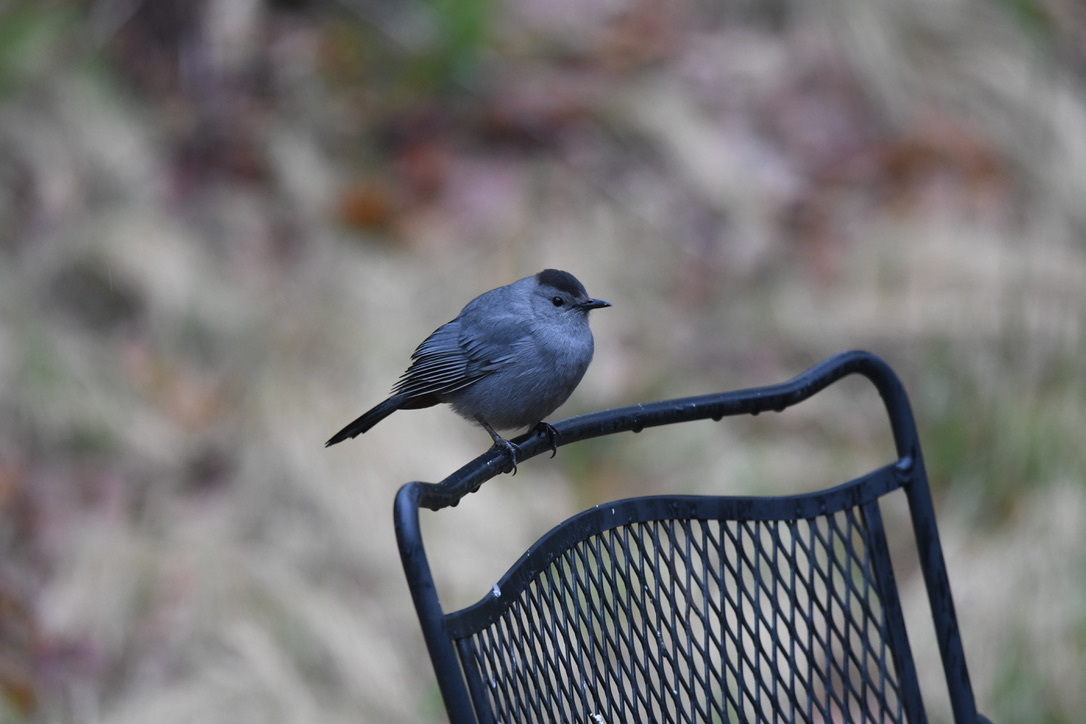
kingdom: Animalia
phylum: Chordata
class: Aves
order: Passeriformes
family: Mimidae
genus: Dumetella
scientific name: Dumetella carolinensis
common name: Gray catbird
